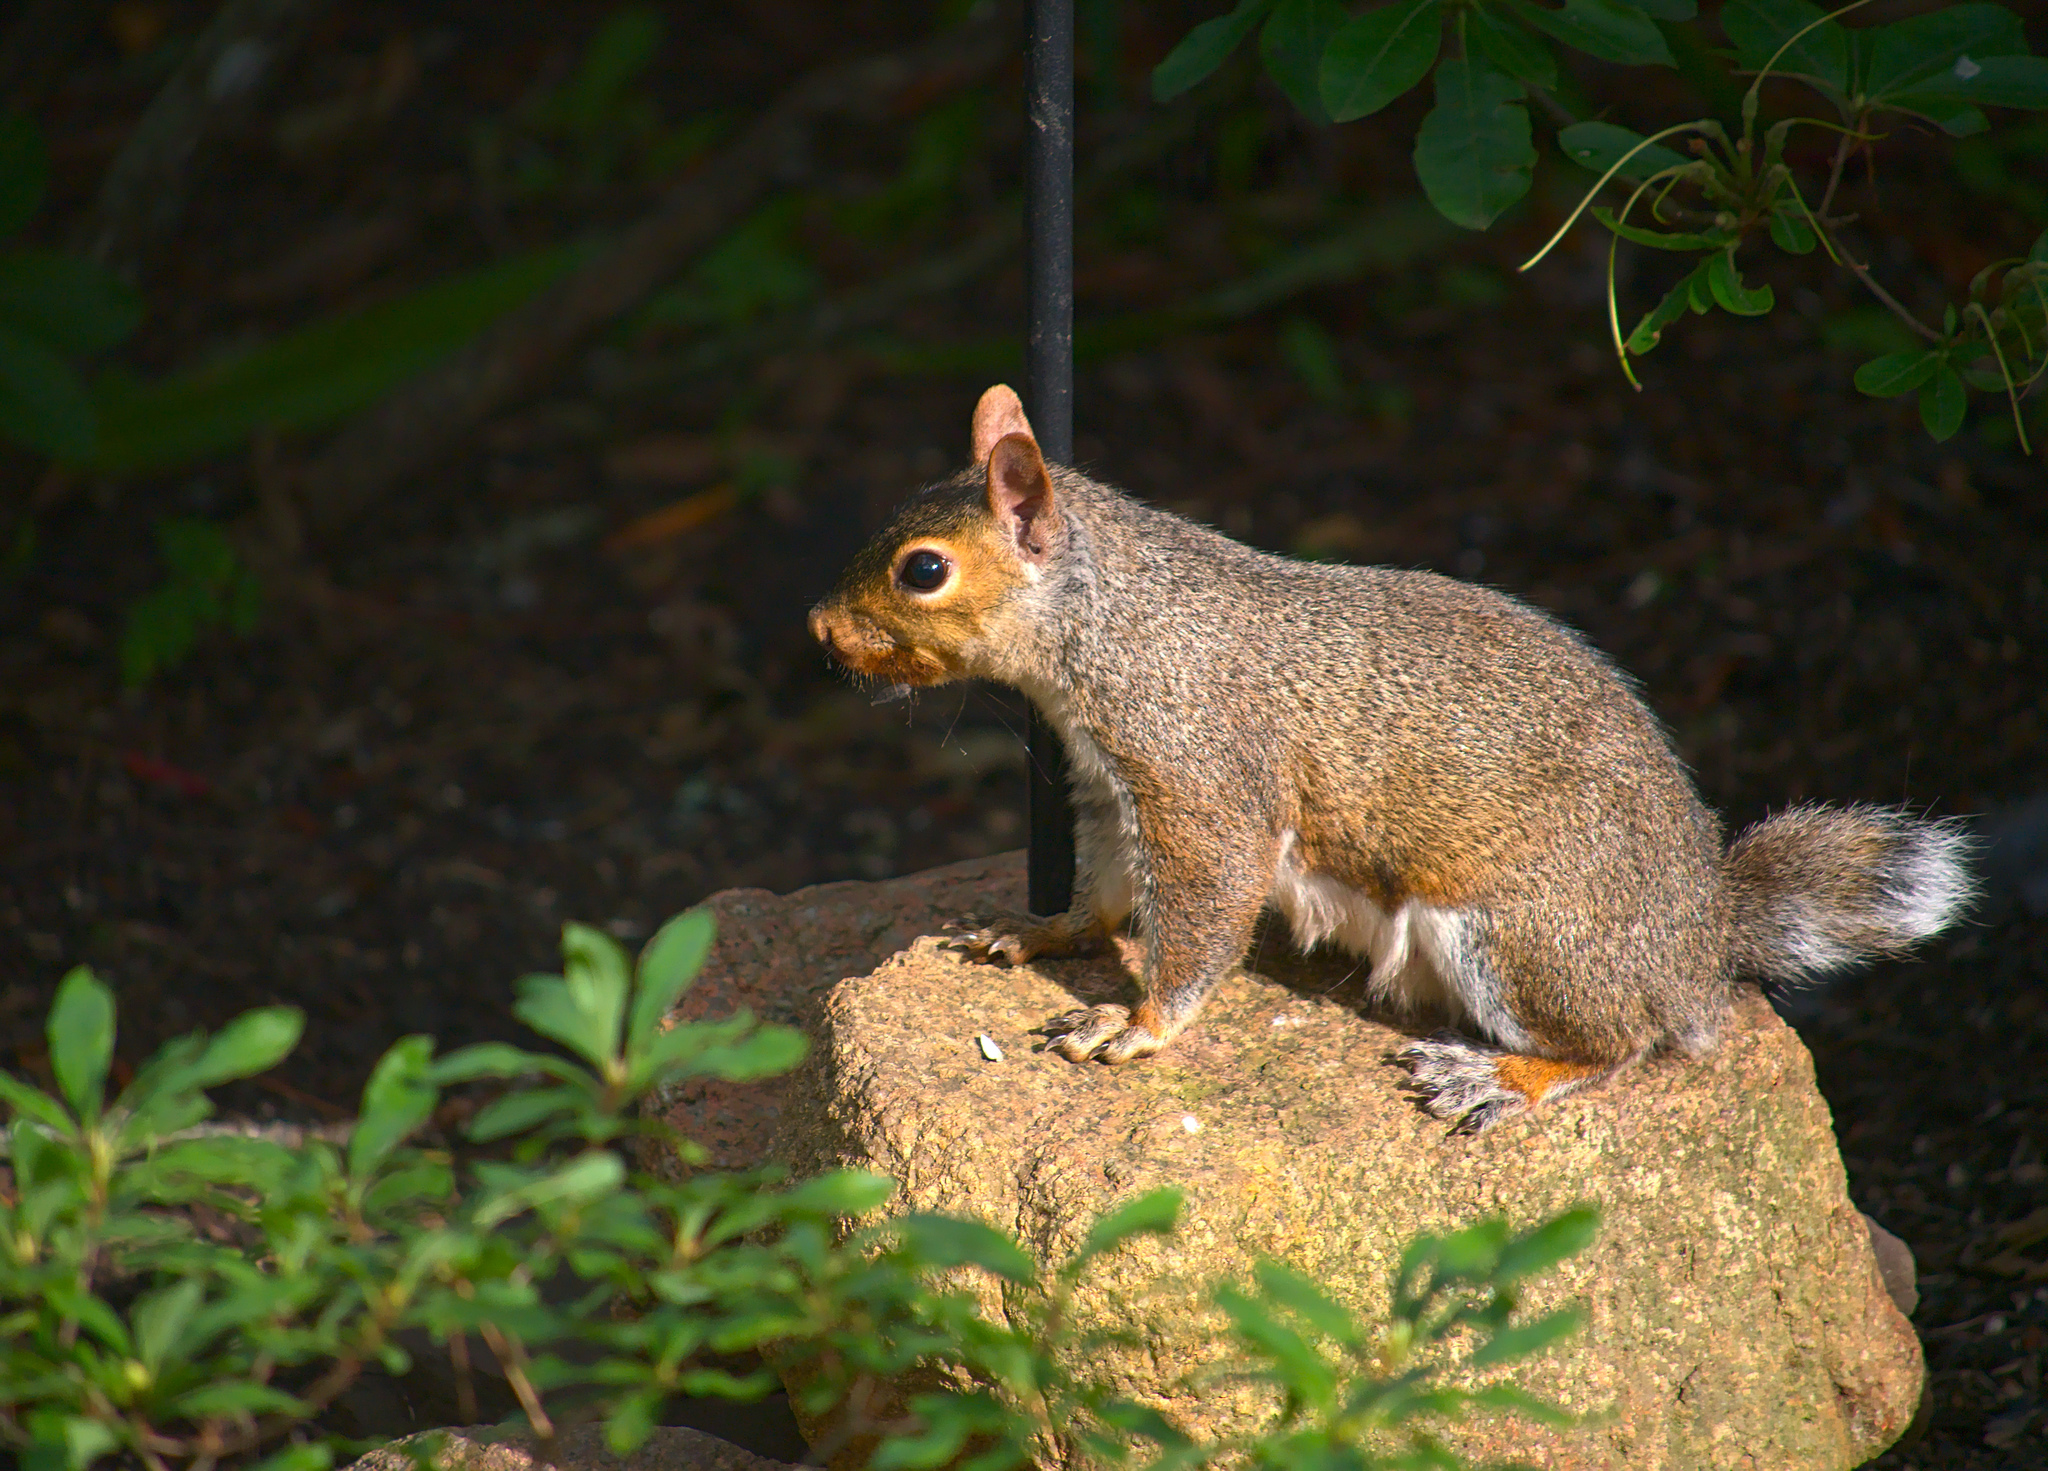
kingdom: Animalia
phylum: Chordata
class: Mammalia
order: Rodentia
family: Sciuridae
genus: Sciurus
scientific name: Sciurus carolinensis
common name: Eastern gray squirrel
